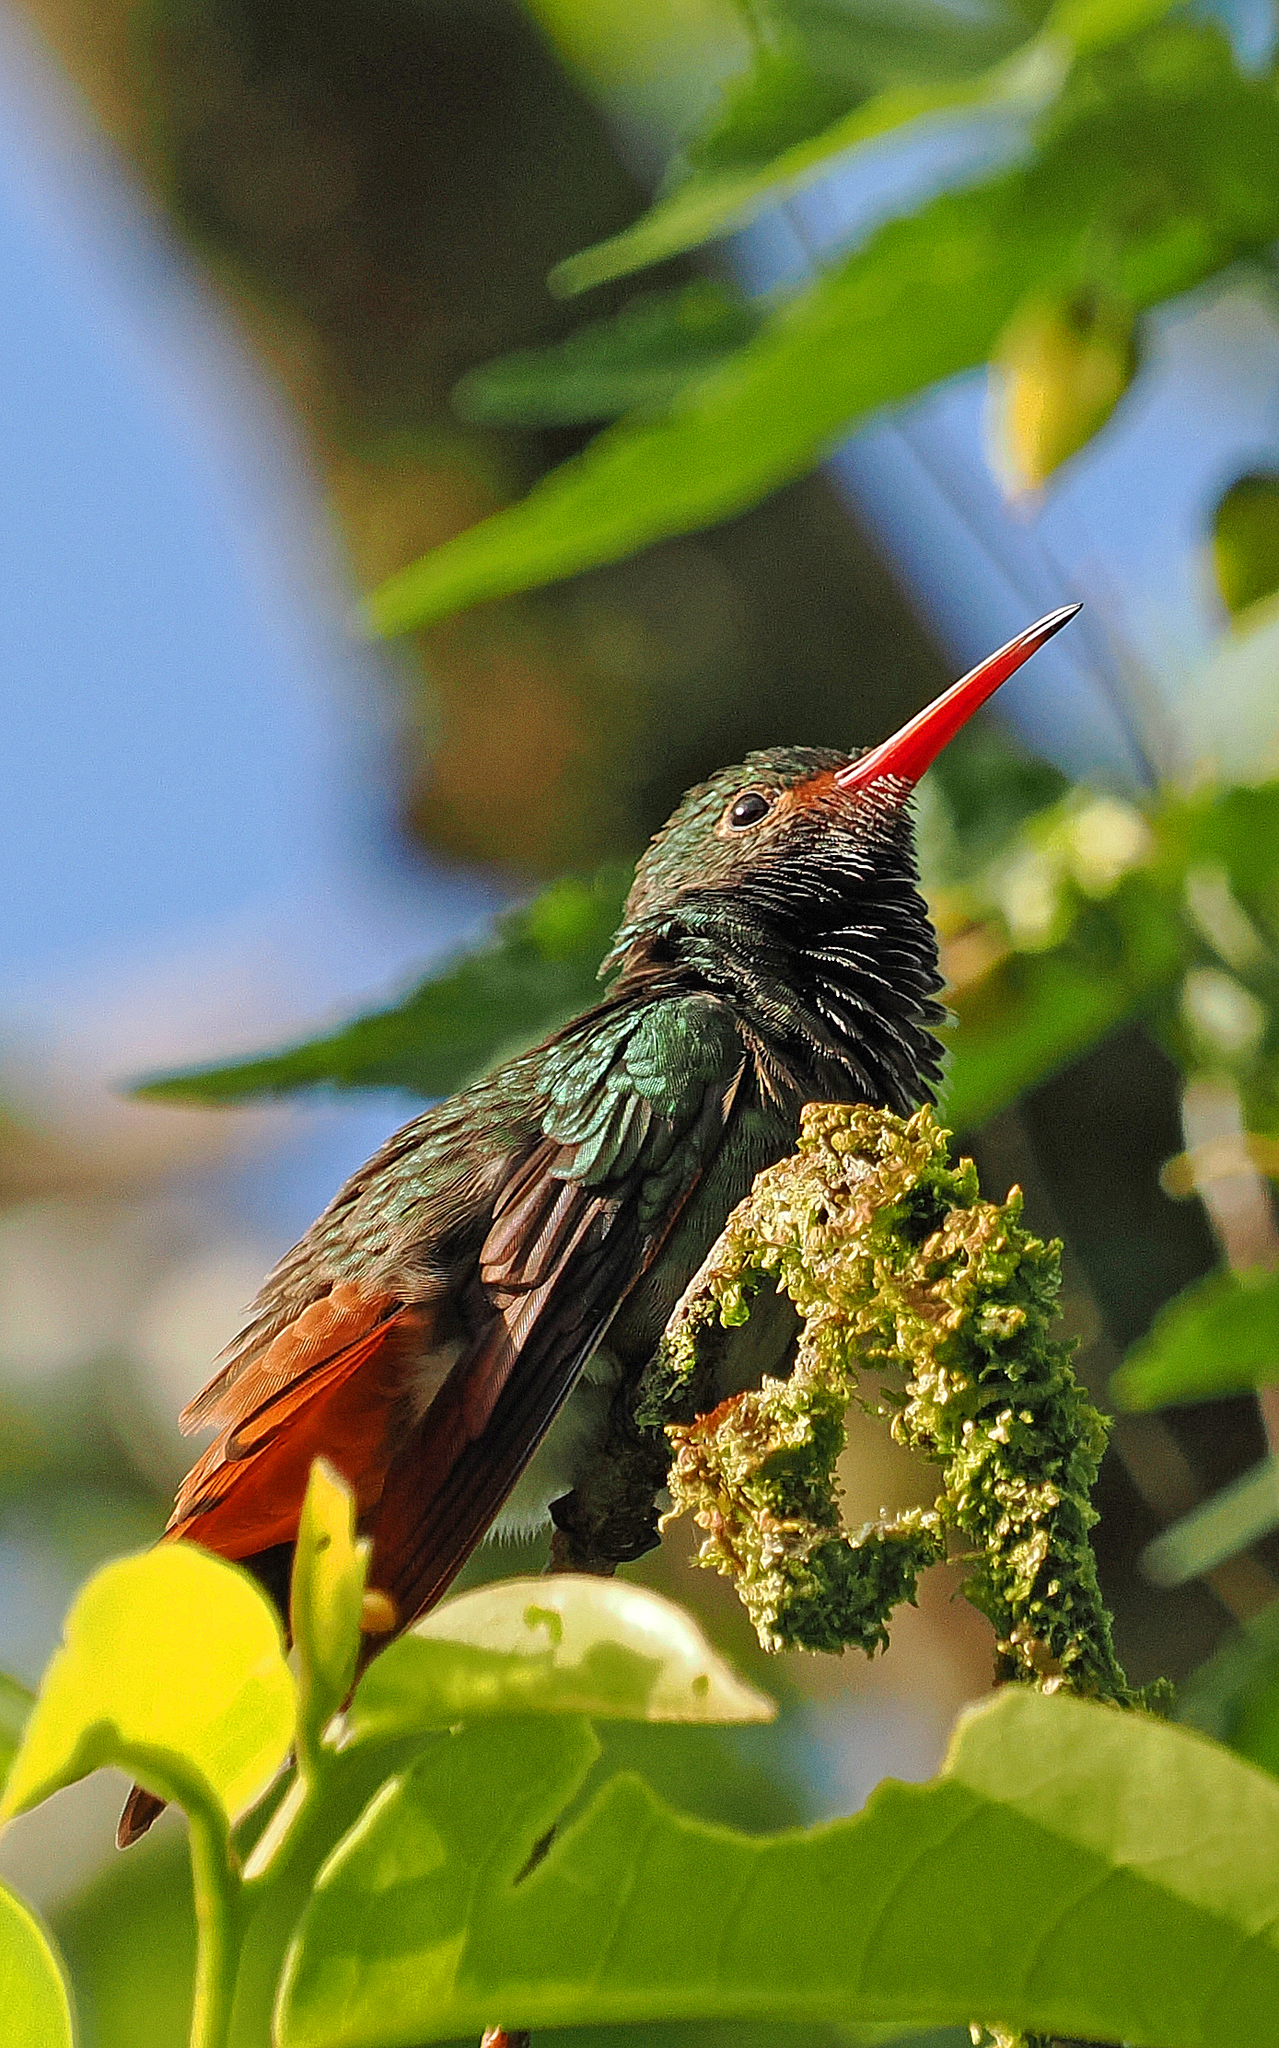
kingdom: Animalia
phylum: Chordata
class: Aves
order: Apodiformes
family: Trochilidae
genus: Amazilia
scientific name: Amazilia tzacatl
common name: Rufous-tailed hummingbird
